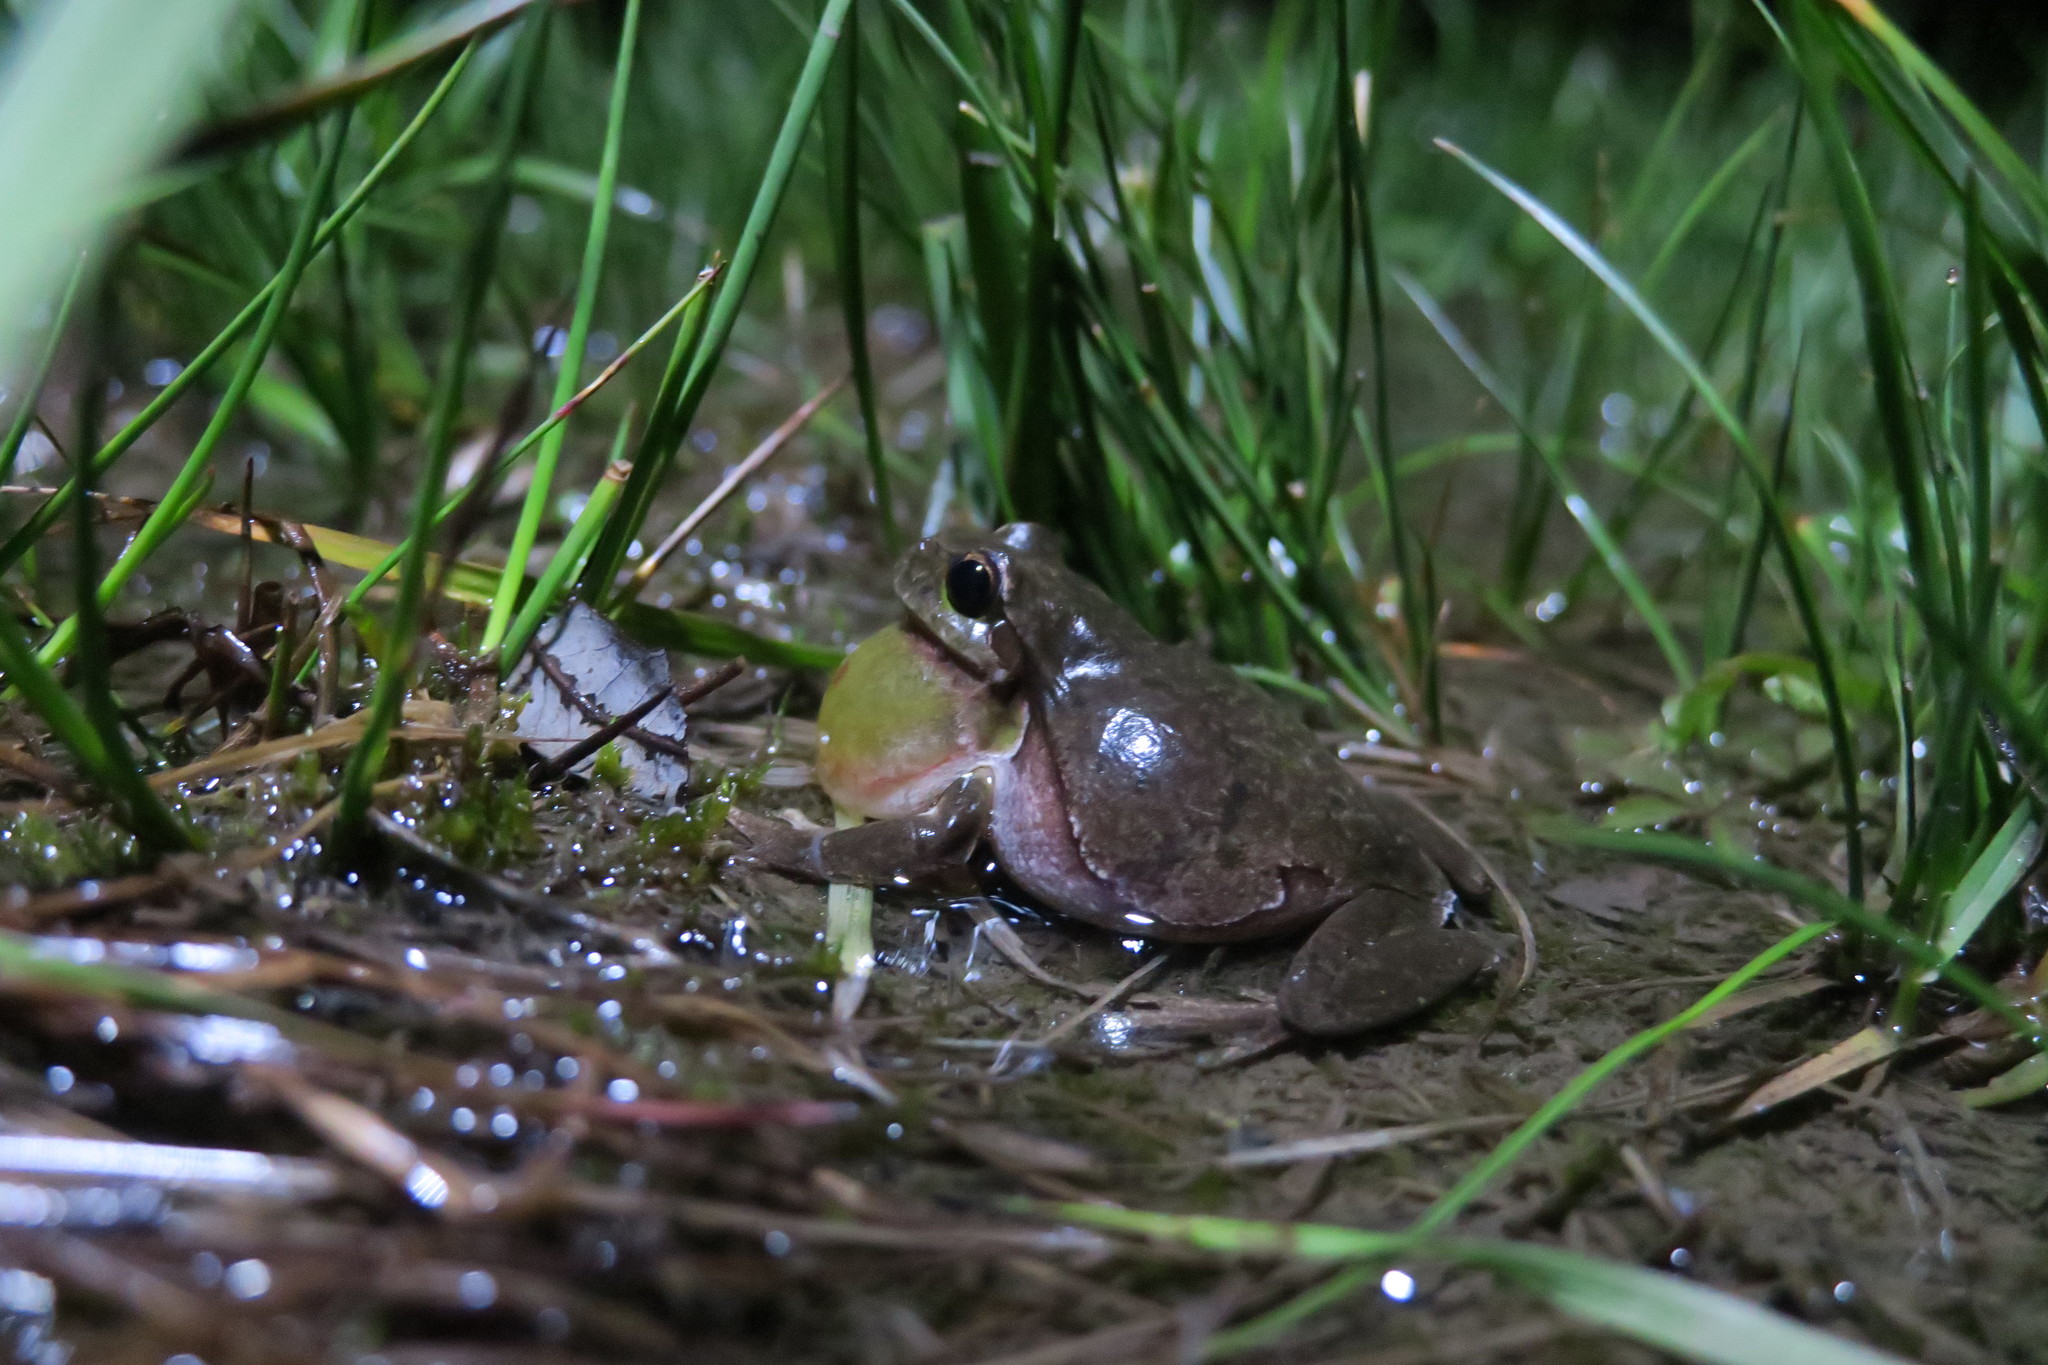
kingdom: Animalia
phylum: Chordata
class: Amphibia
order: Anura
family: Hylidae
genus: Hyla
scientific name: Hyla arborea
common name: Common tree frog
